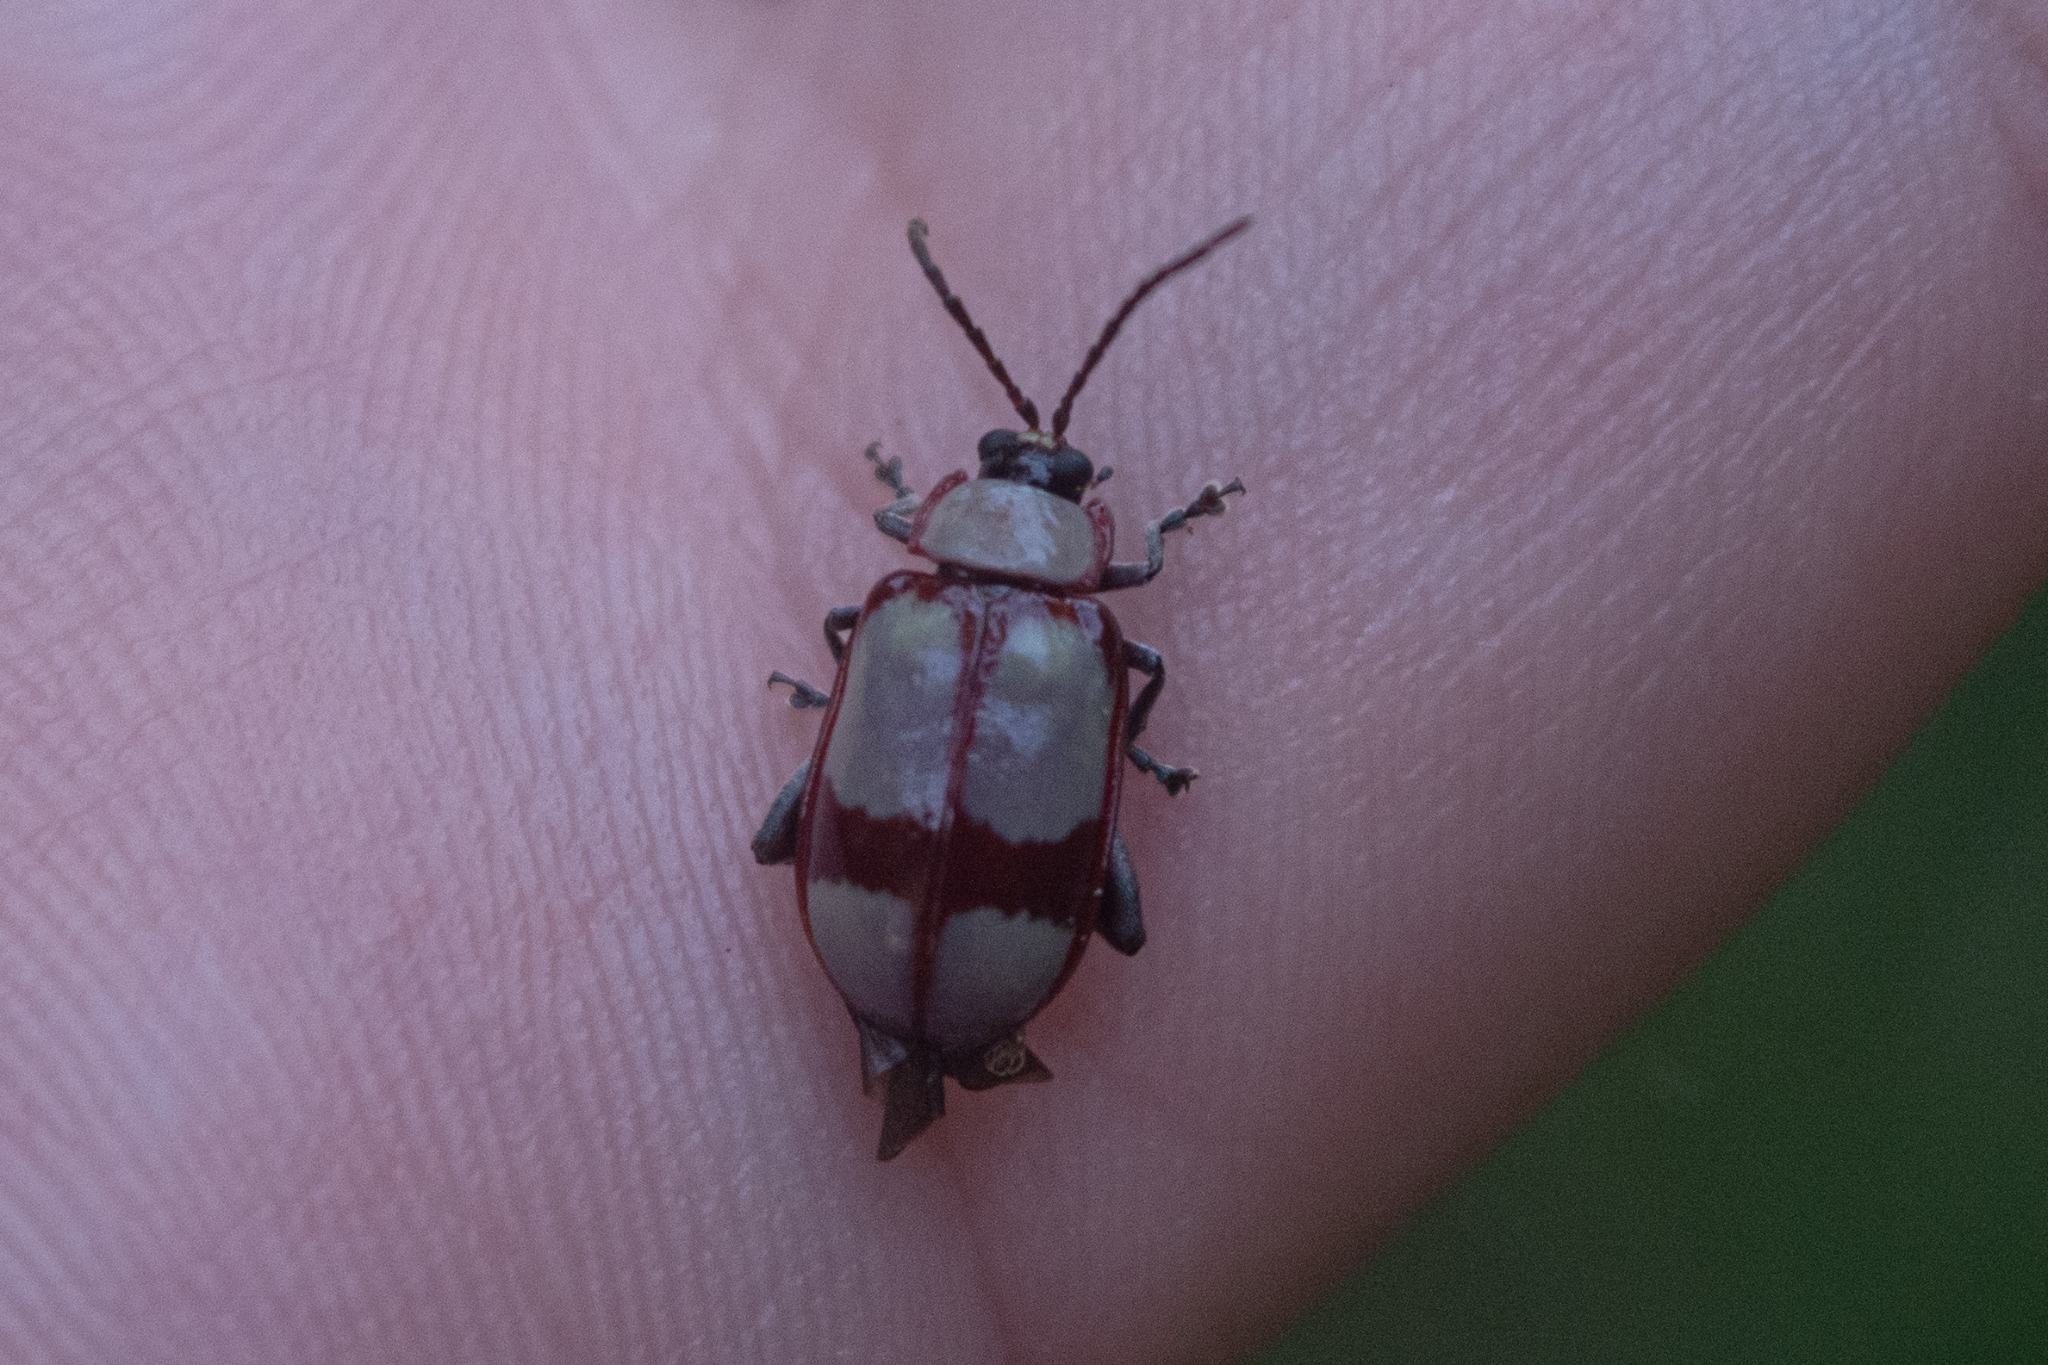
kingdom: Animalia
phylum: Arthropoda
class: Insecta
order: Coleoptera
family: Chrysomelidae
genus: Omophoita
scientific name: Omophoita
